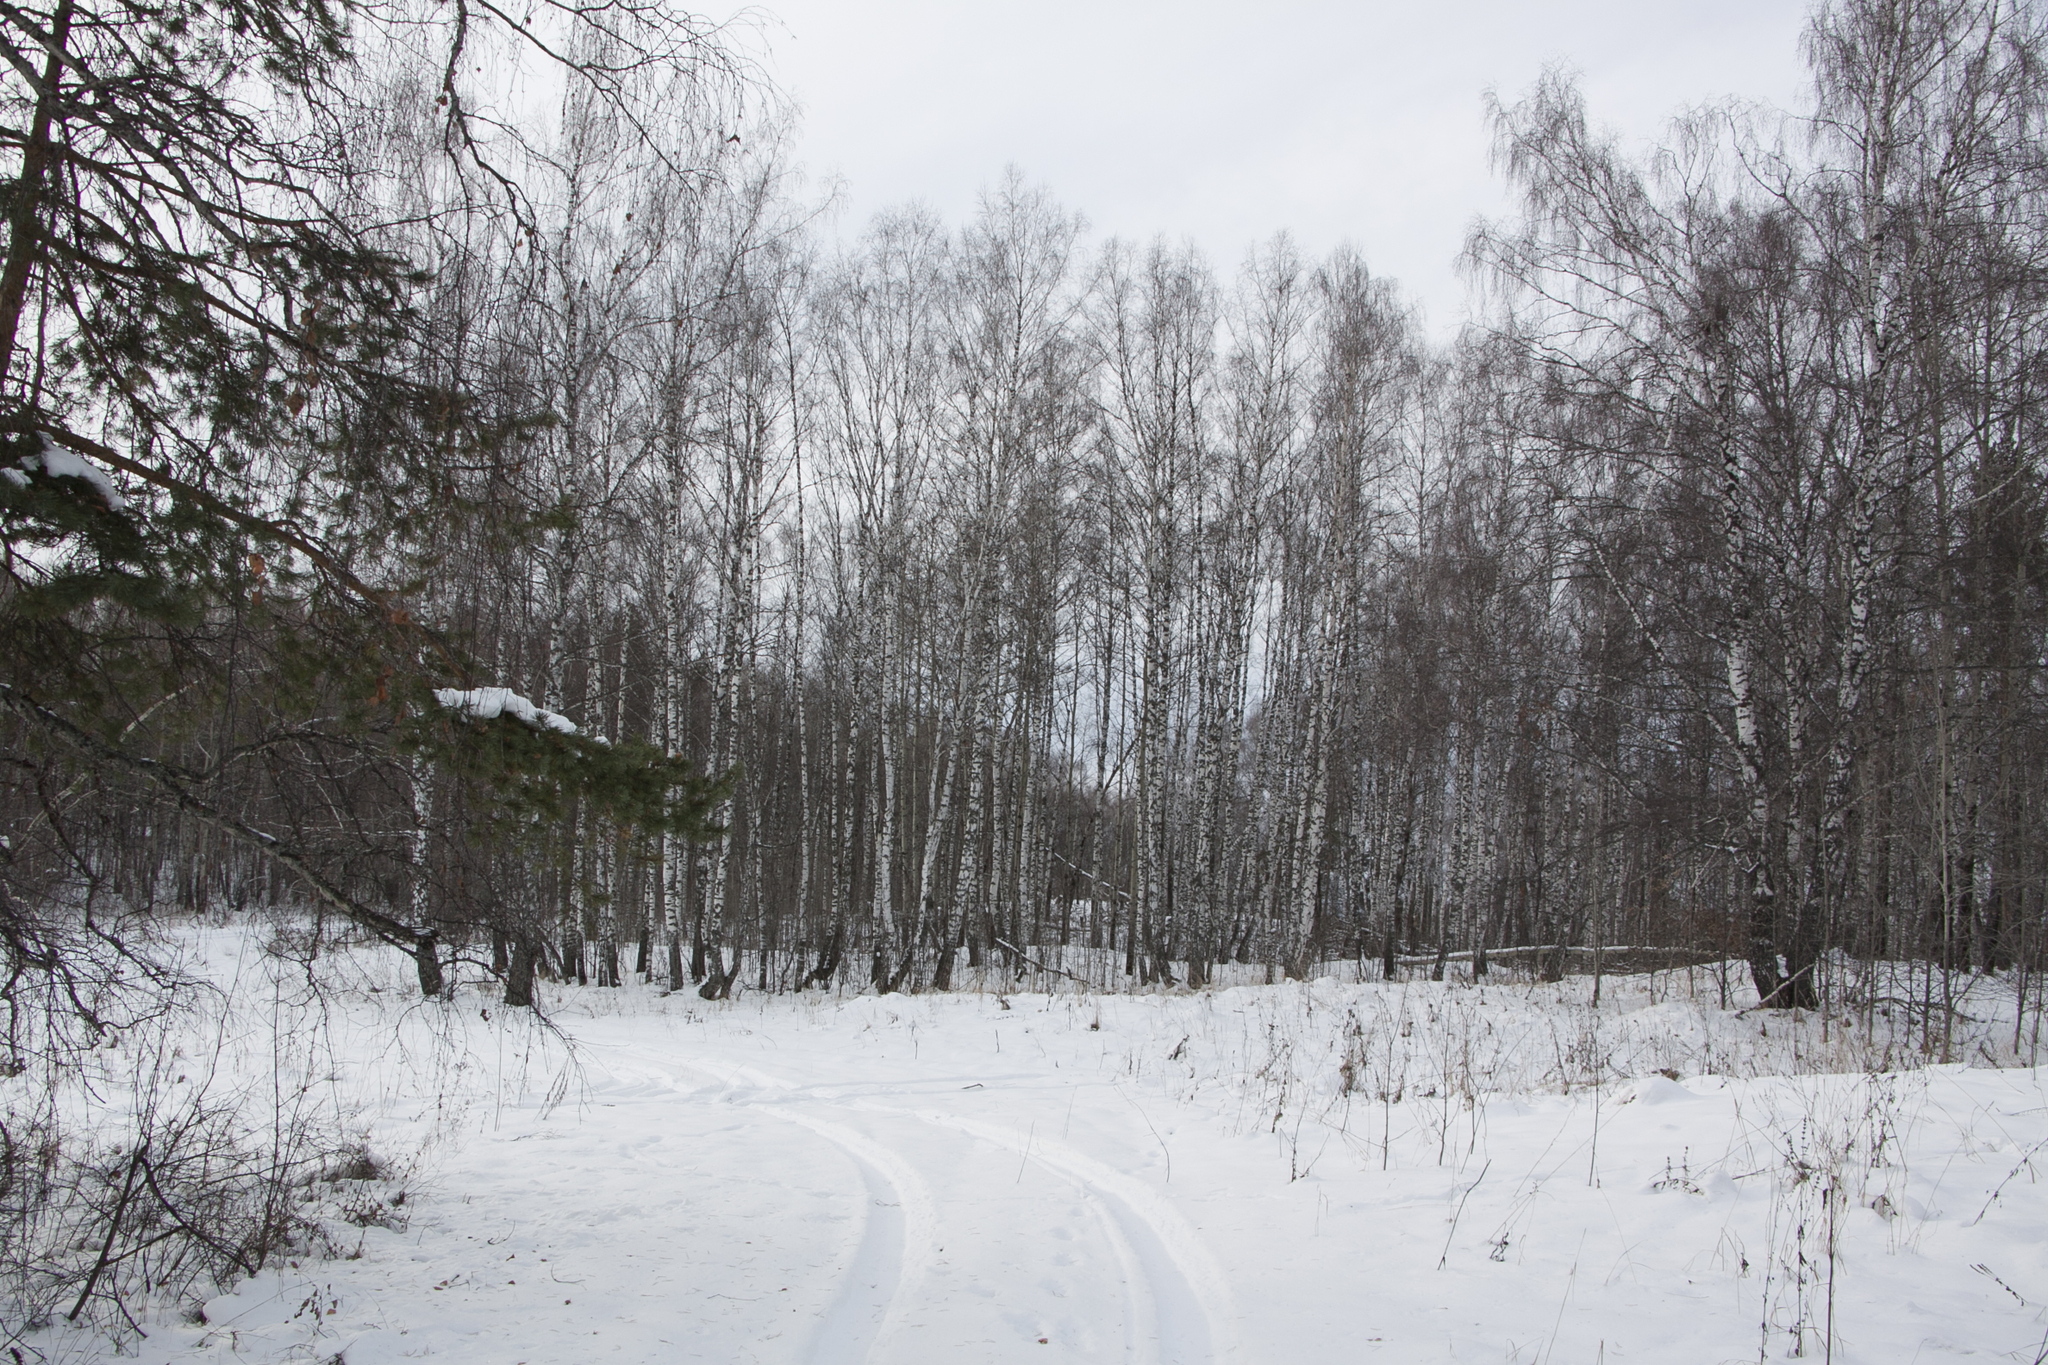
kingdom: Plantae
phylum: Tracheophyta
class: Magnoliopsida
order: Fagales
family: Betulaceae
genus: Betula
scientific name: Betula pendula
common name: Silver birch
